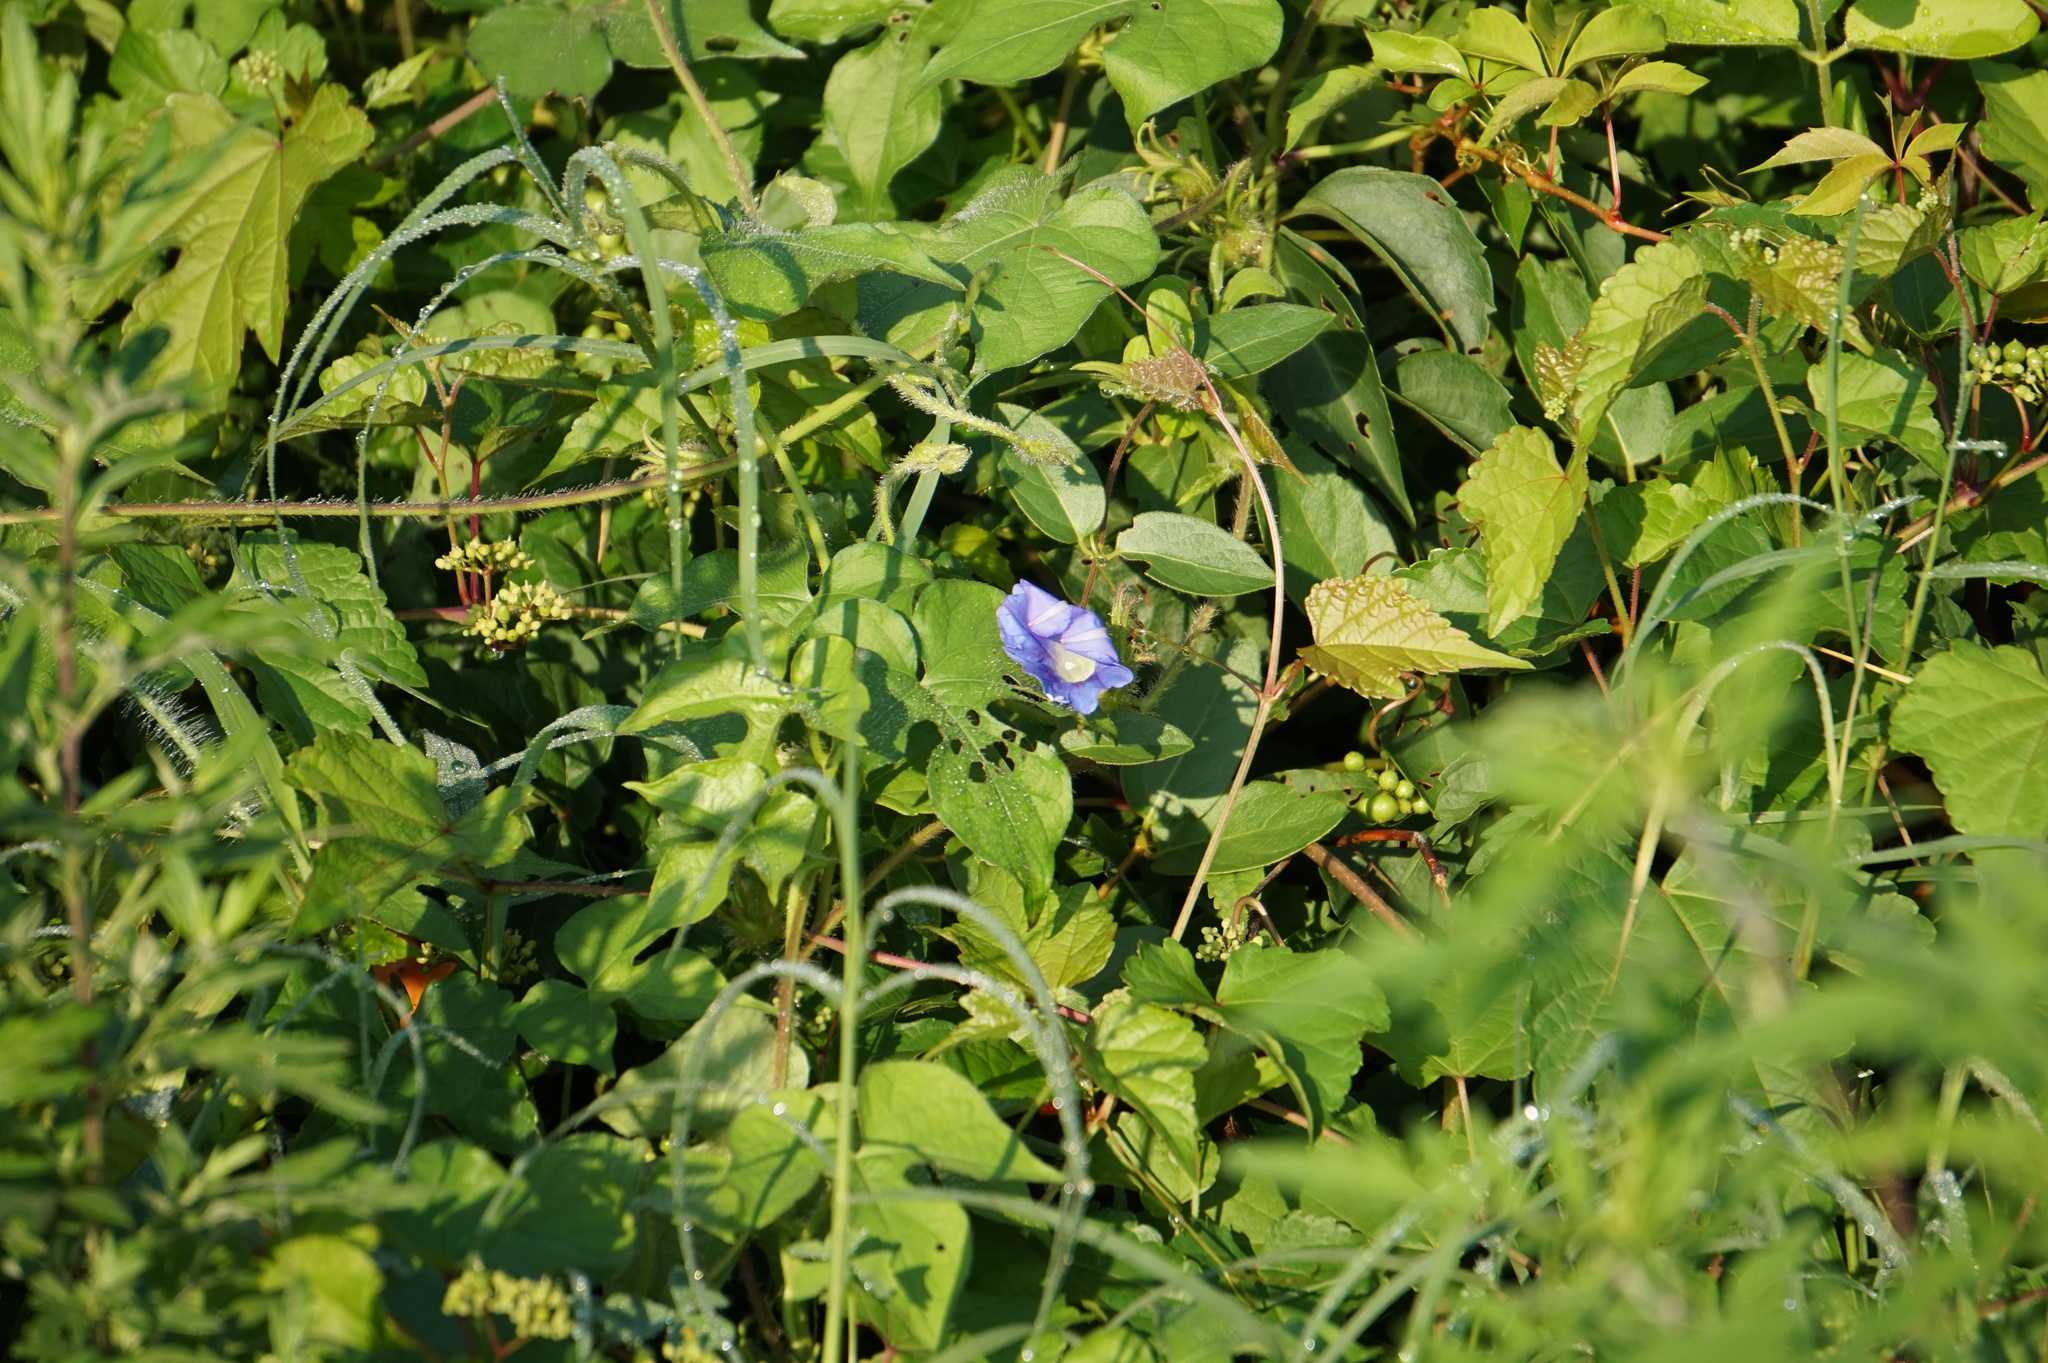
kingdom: Plantae
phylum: Tracheophyta
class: Magnoliopsida
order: Solanales
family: Convolvulaceae
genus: Ipomoea
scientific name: Ipomoea hederacea
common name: Ivy-leaved morning-glory
